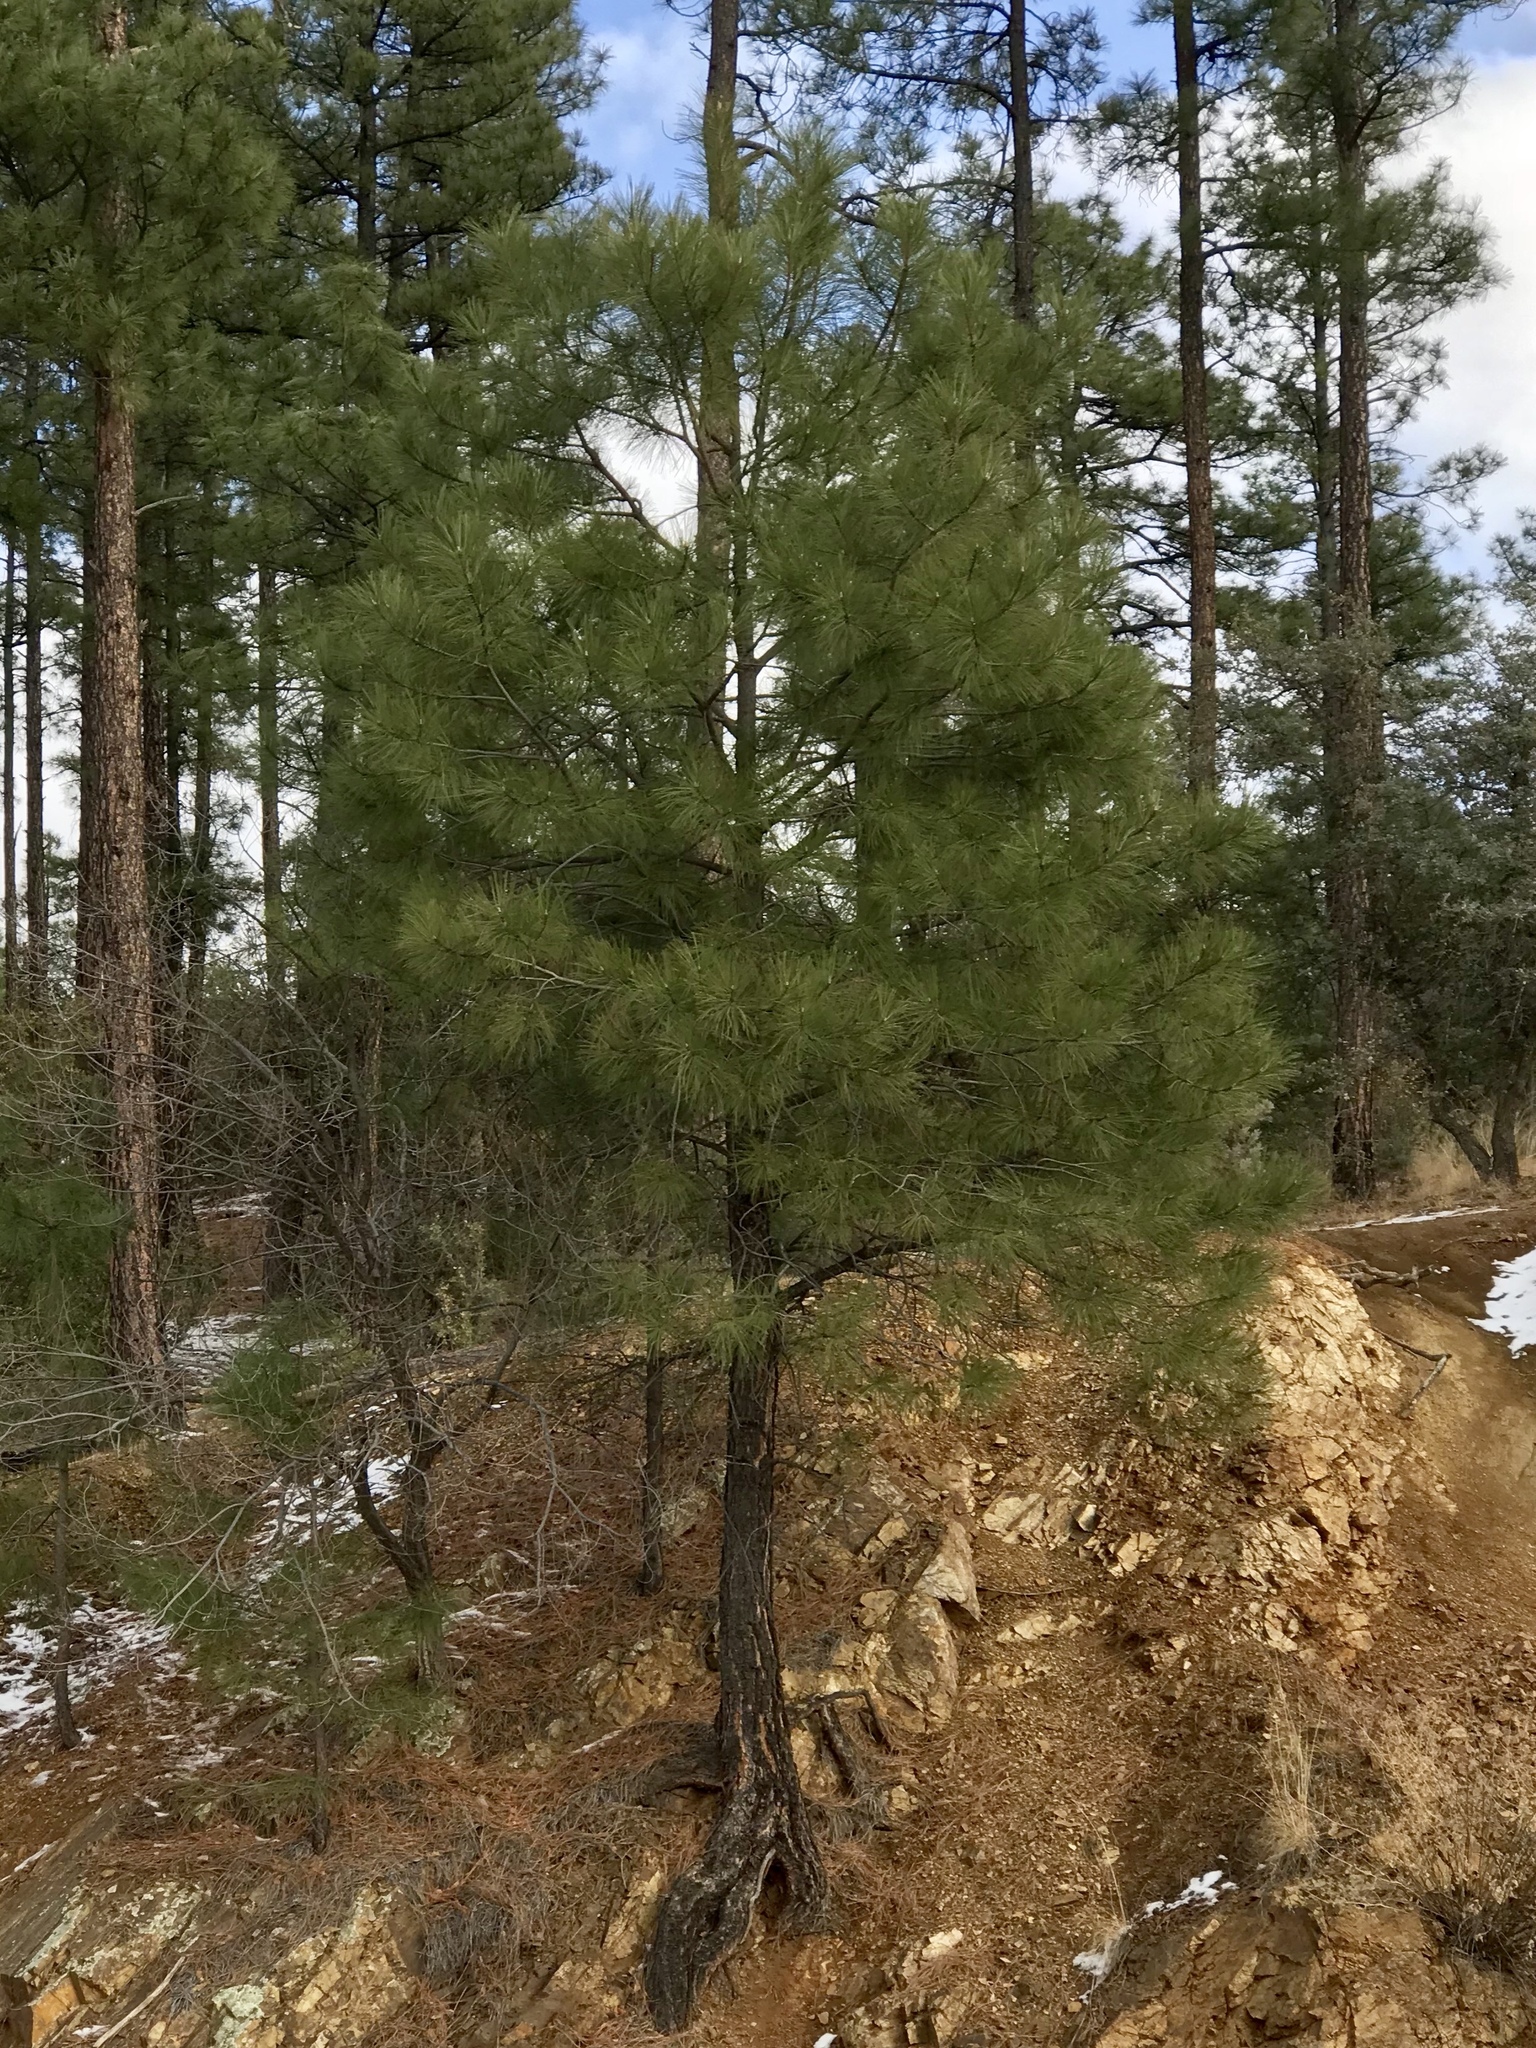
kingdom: Plantae
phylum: Tracheophyta
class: Pinopsida
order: Pinales
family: Pinaceae
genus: Pinus
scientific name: Pinus ponderosa
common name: Western yellow-pine
